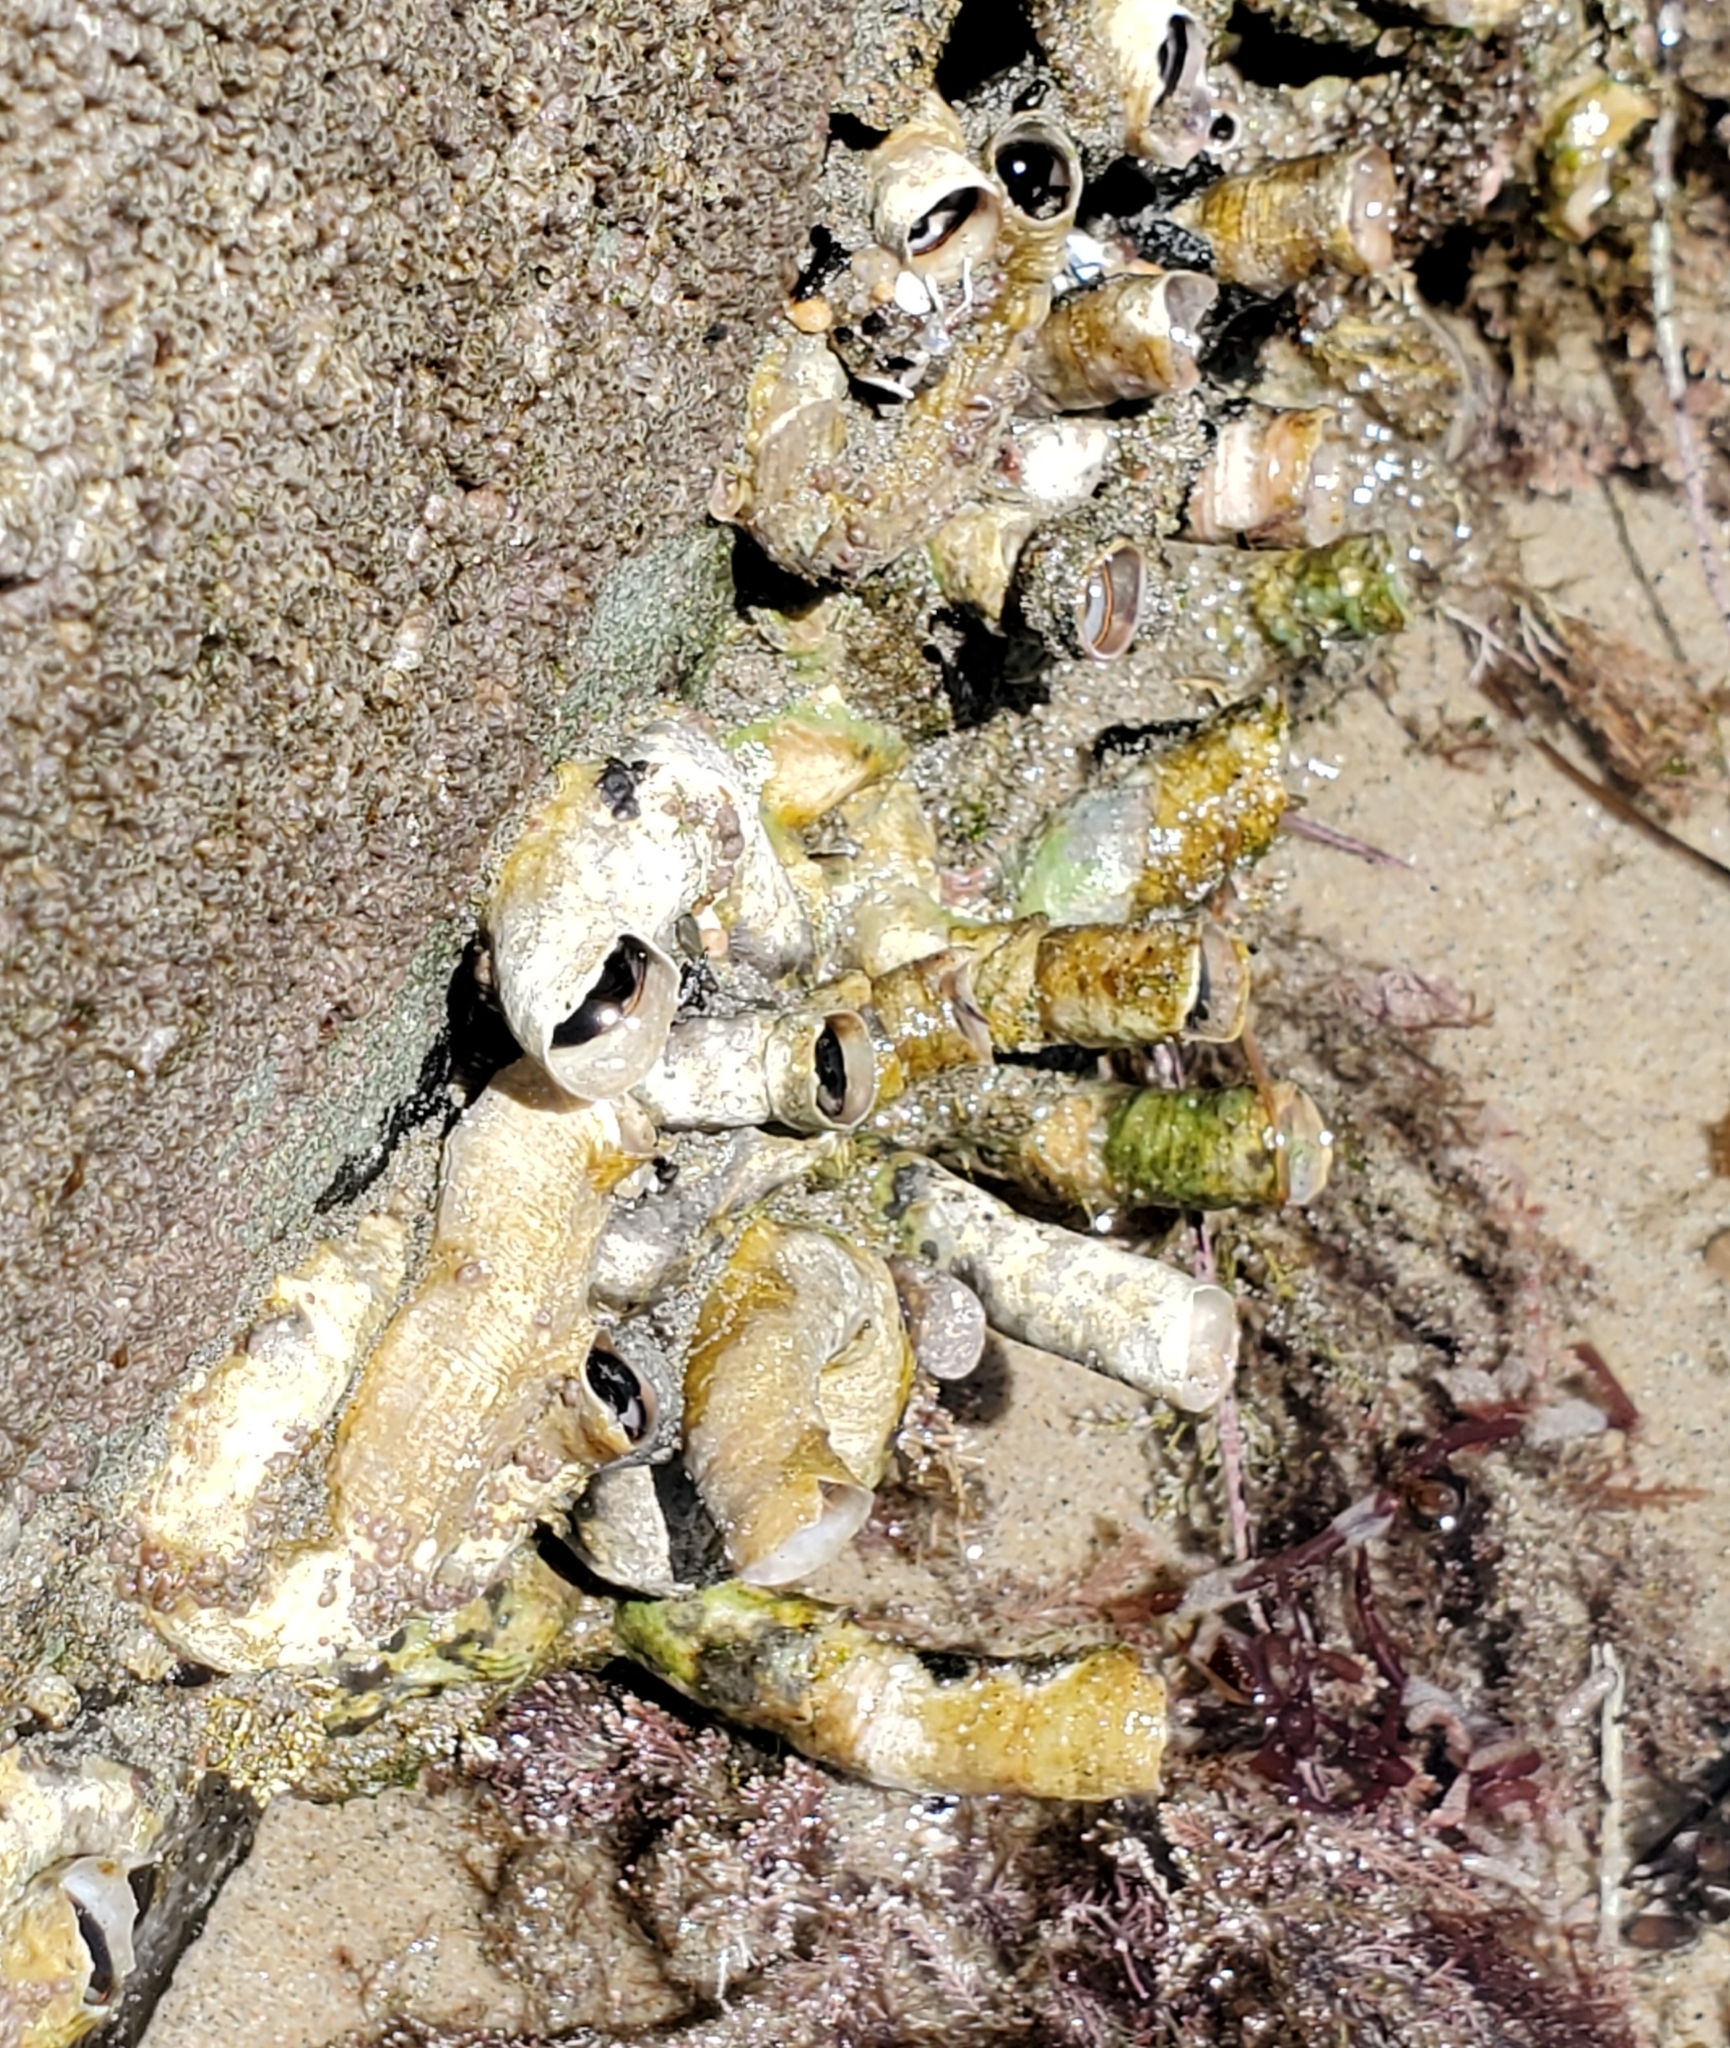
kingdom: Animalia
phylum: Mollusca
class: Gastropoda
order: Littorinimorpha
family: Vermetidae
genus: Thylacodes
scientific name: Thylacodes squamigerus
